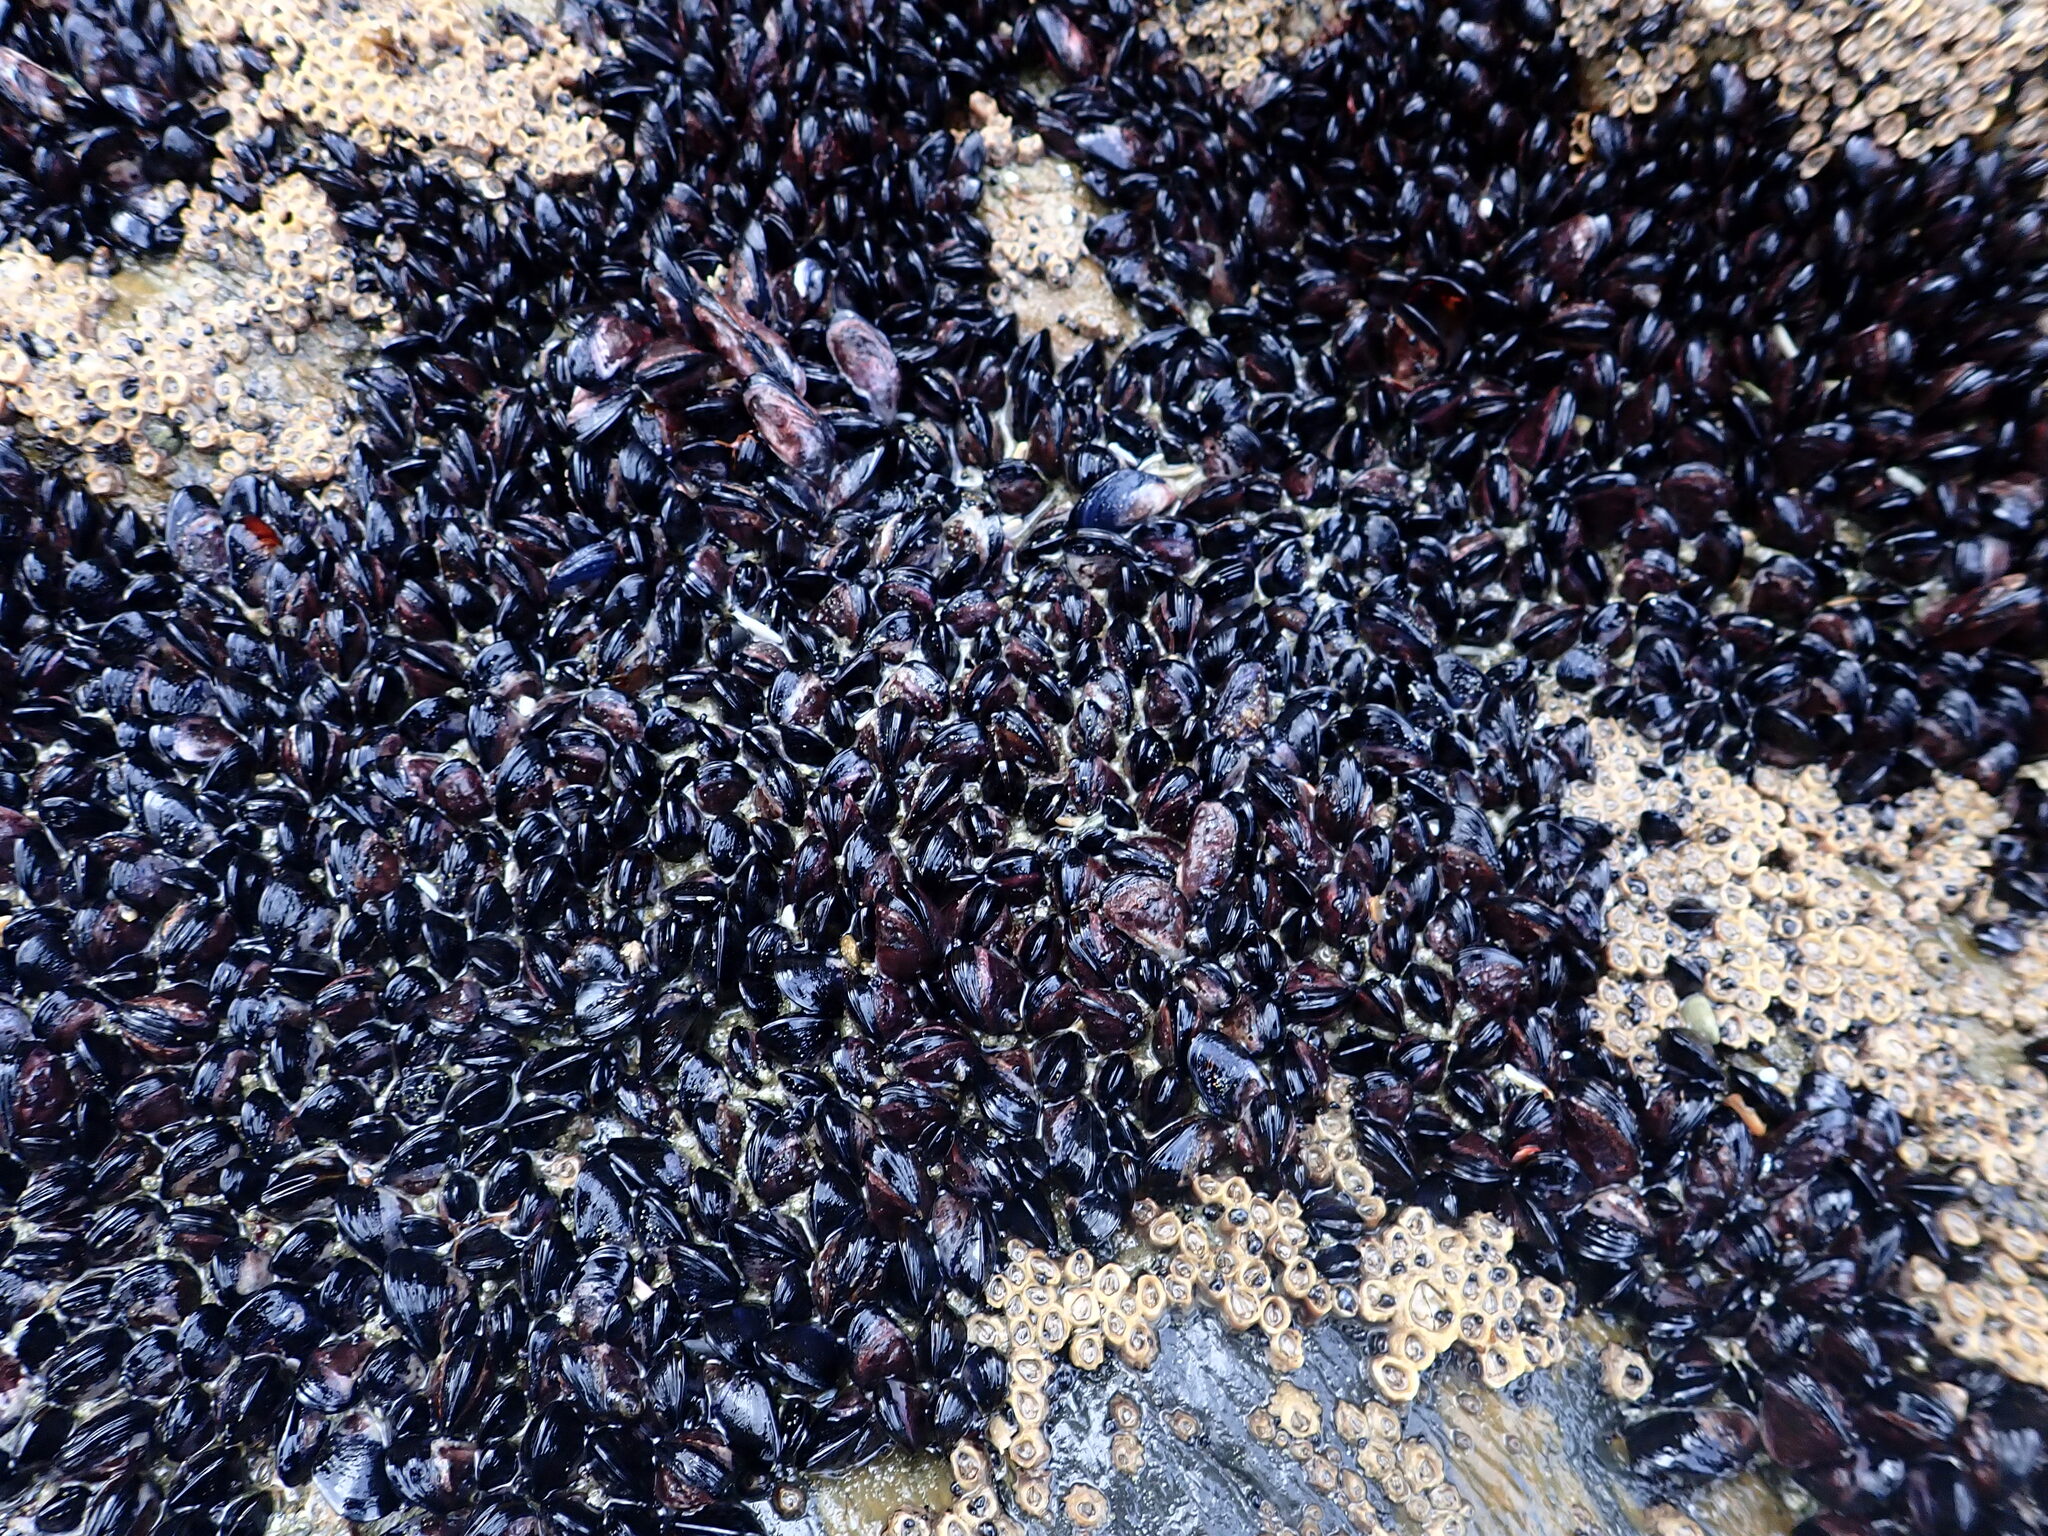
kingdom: Animalia
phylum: Mollusca
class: Bivalvia
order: Mytilida
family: Mytilidae
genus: Xenostrobus
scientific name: Xenostrobus neozelanicus
